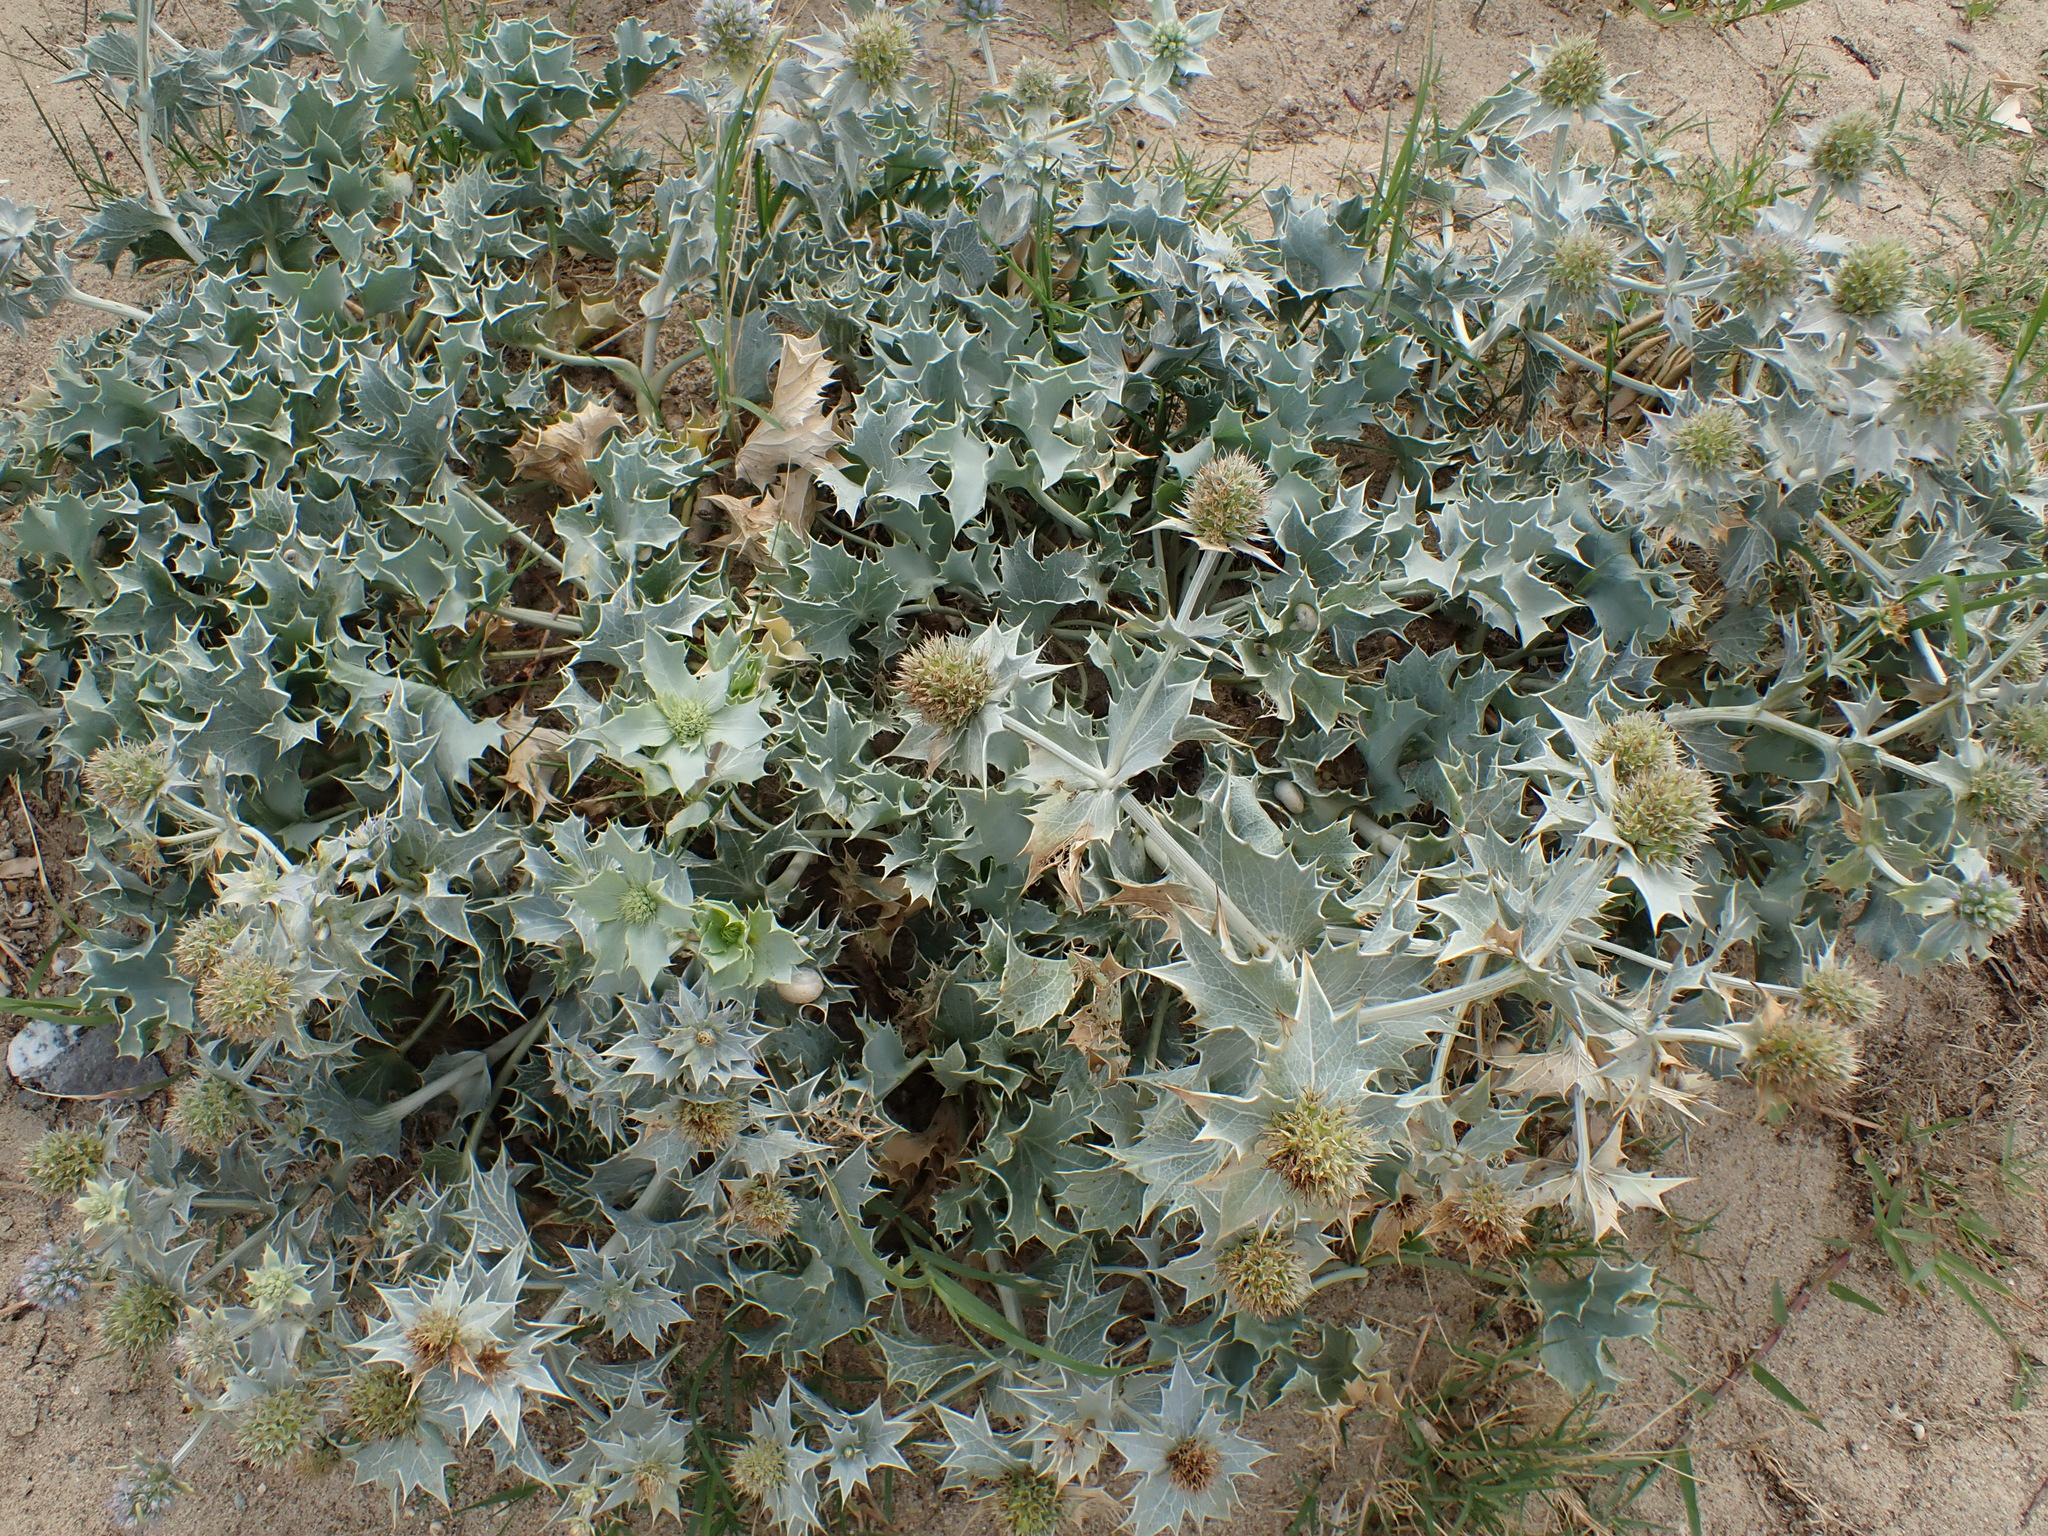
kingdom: Plantae
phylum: Tracheophyta
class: Magnoliopsida
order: Apiales
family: Apiaceae
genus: Eryngium
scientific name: Eryngium maritimum
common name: Sea-holly
